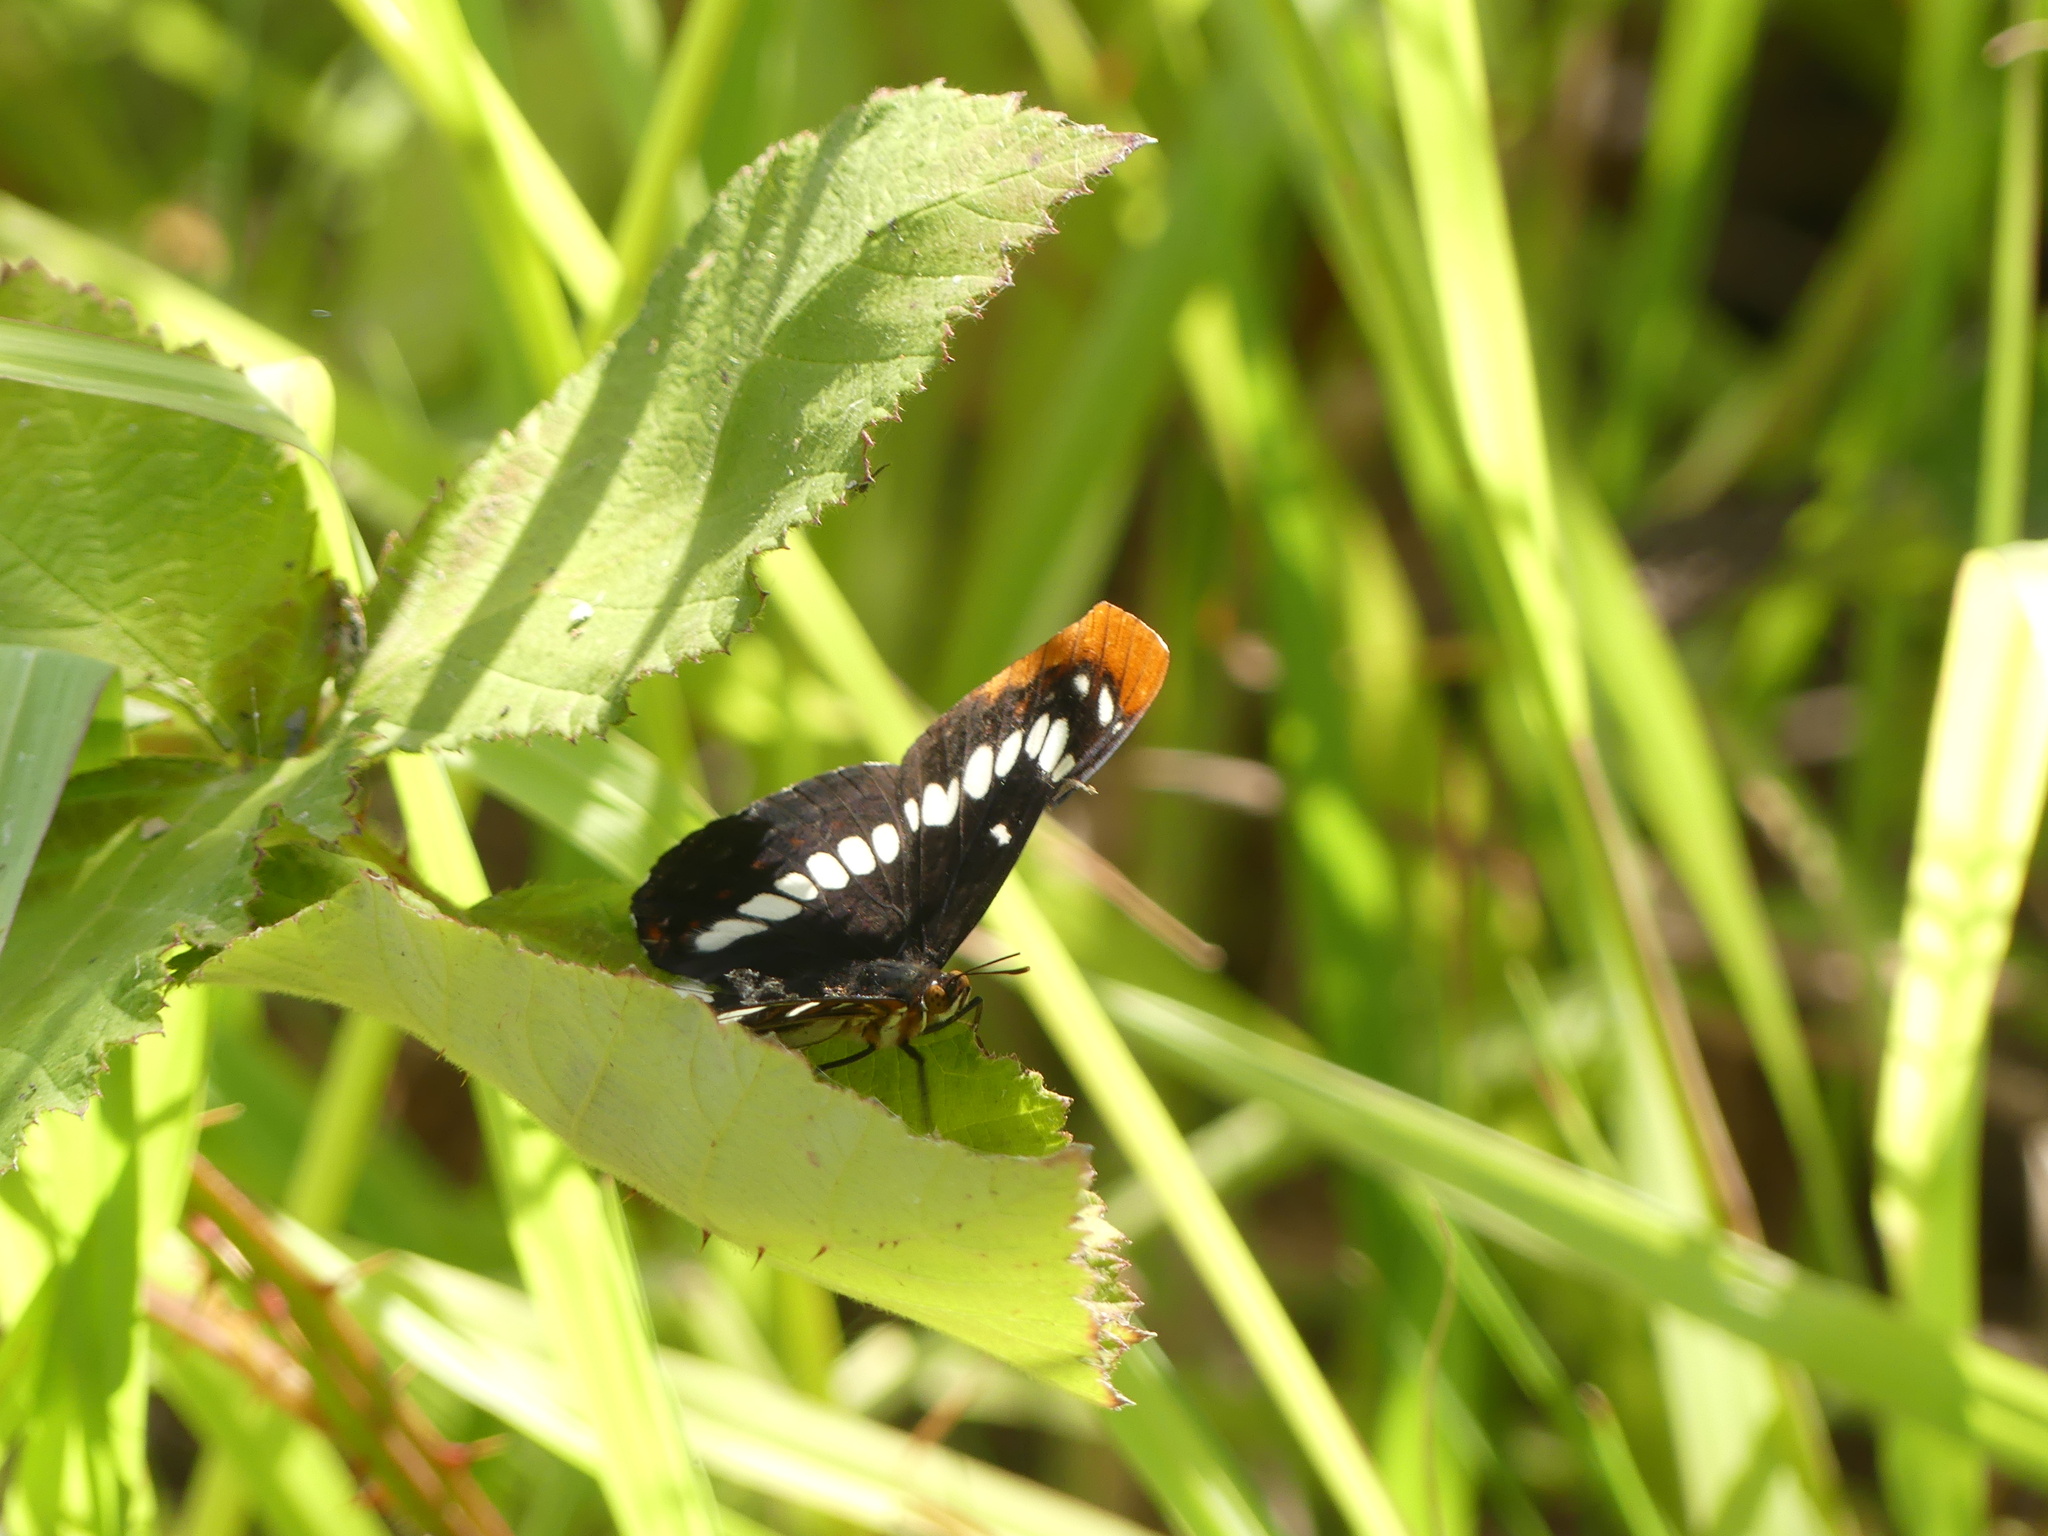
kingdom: Animalia
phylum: Arthropoda
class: Insecta
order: Lepidoptera
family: Nymphalidae
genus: Limenitis
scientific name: Limenitis lorquini
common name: Lorquin's admiral
